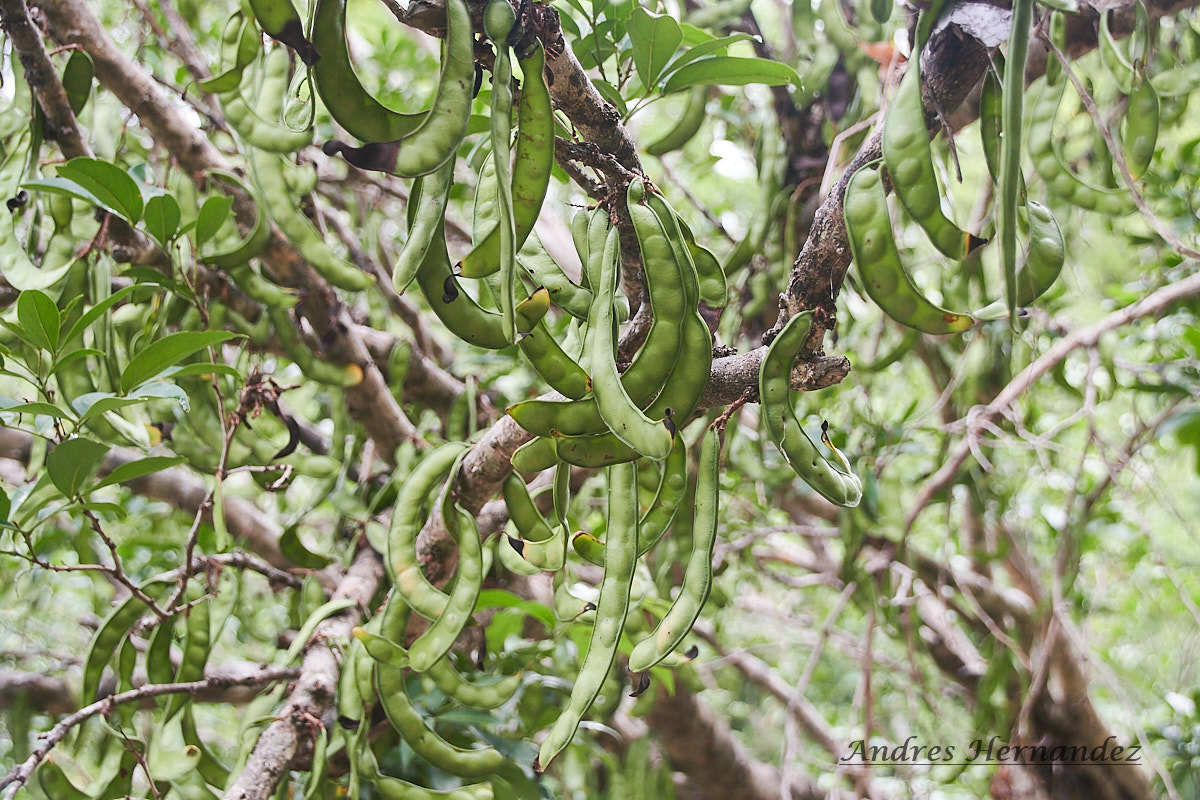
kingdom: Plantae
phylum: Tracheophyta
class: Magnoliopsida
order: Fabales
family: Fabaceae
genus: Zygia
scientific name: Zygia longifolia
